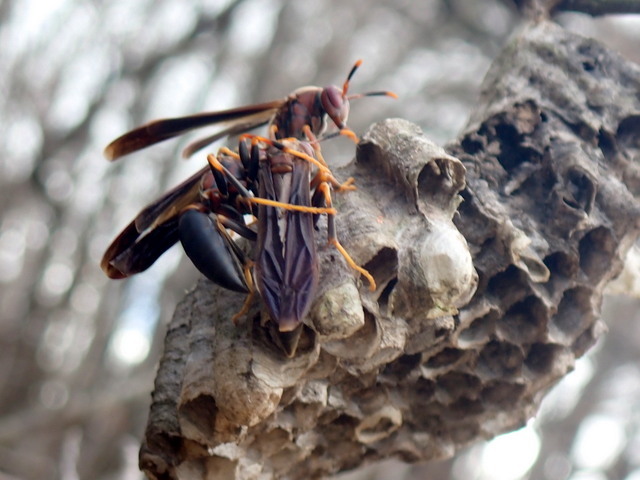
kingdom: Animalia
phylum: Arthropoda
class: Insecta
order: Hymenoptera
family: Eumenidae
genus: Polistes
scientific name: Polistes annularis
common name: Ringed paper wasp
